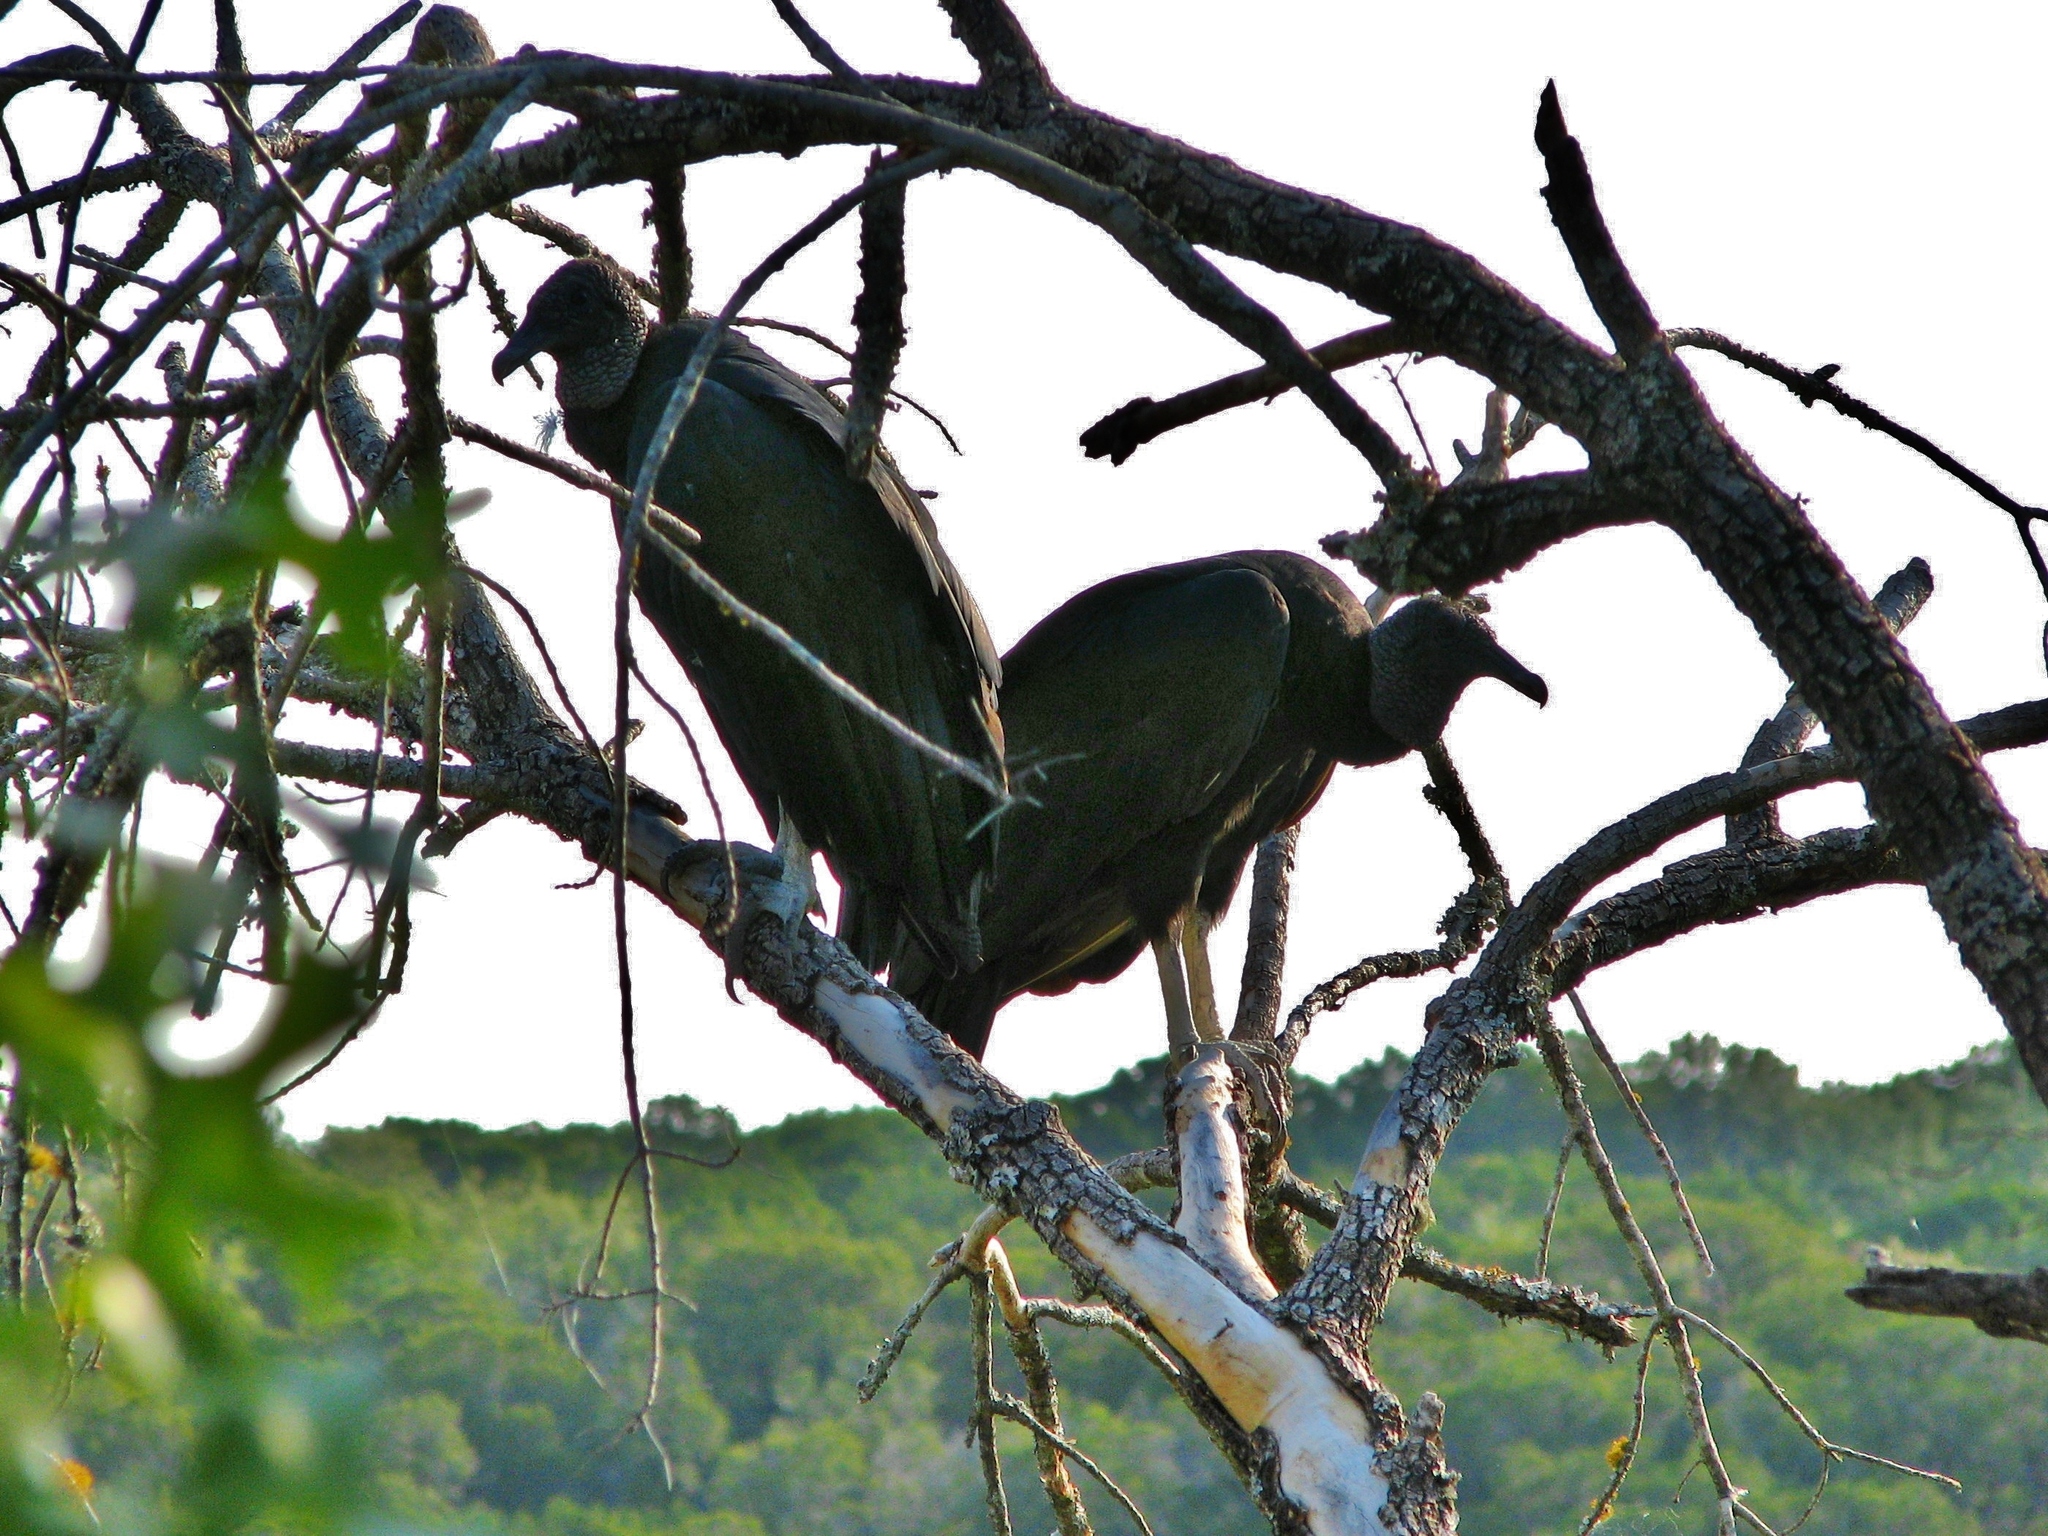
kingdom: Animalia
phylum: Chordata
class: Aves
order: Accipitriformes
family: Cathartidae
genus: Coragyps
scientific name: Coragyps atratus
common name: Black vulture
